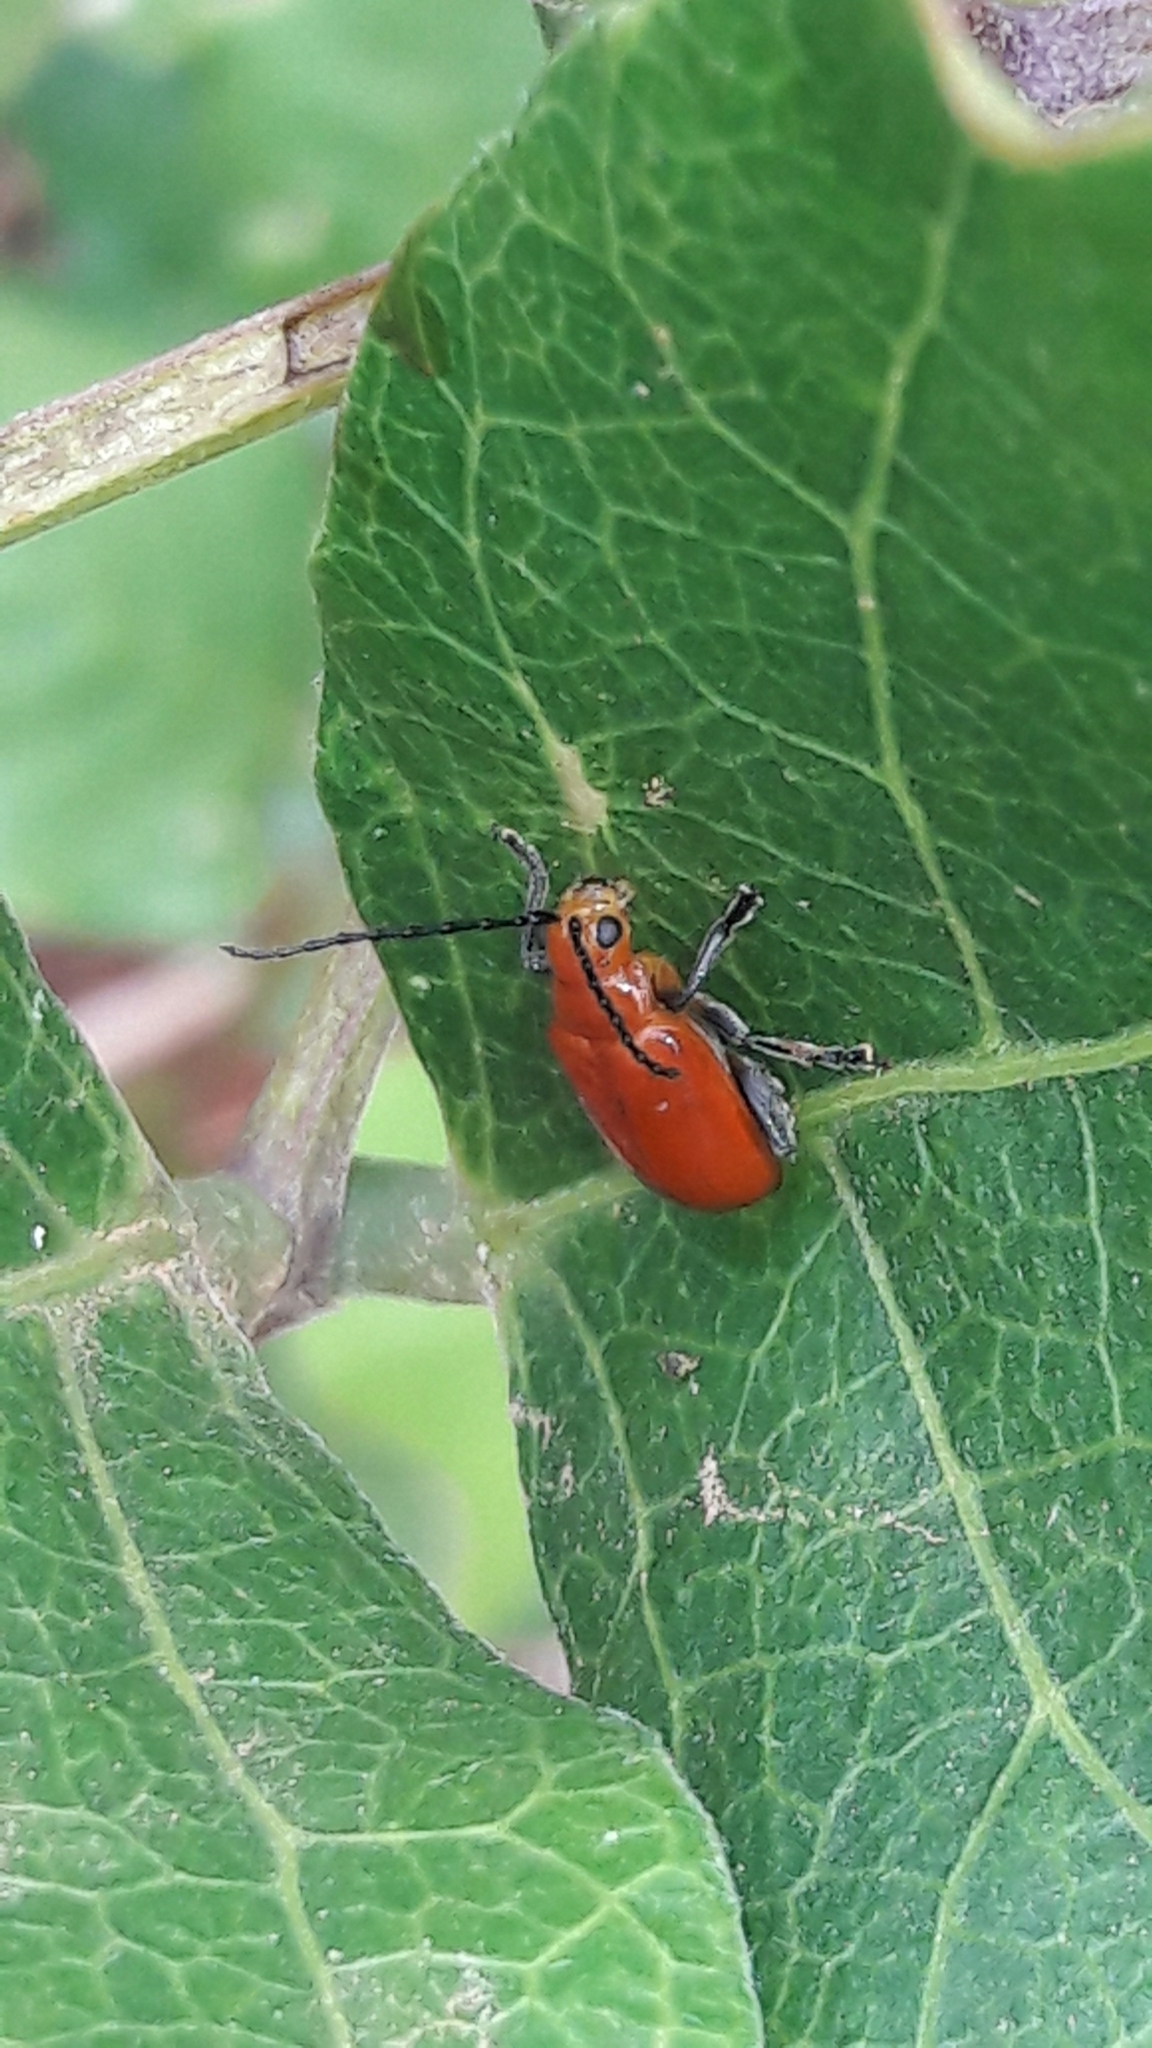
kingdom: Animalia
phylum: Arthropoda
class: Insecta
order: Coleoptera
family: Chrysomelidae
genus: Platiprosopus
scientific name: Platiprosopus
